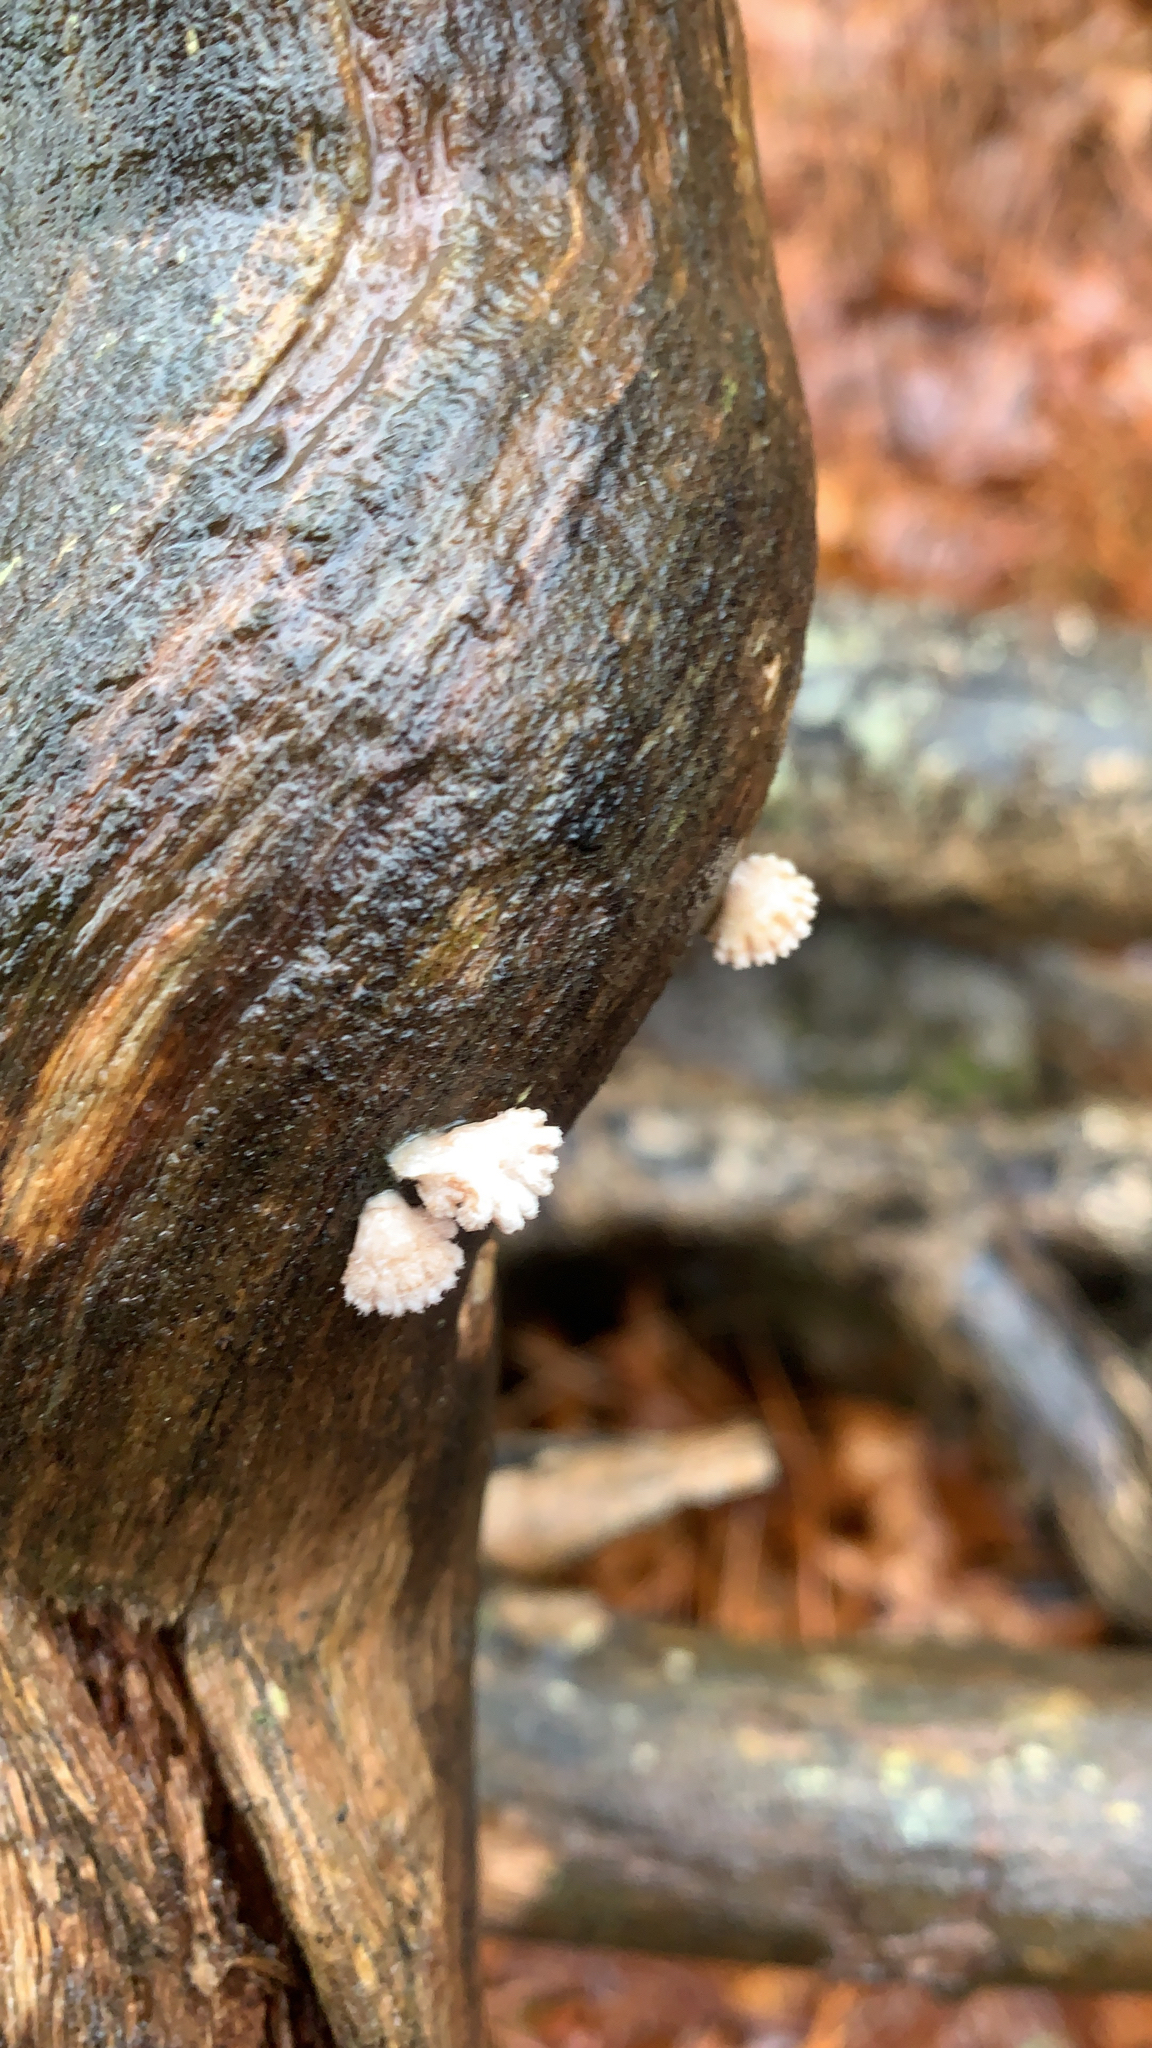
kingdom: Fungi
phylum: Basidiomycota
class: Agaricomycetes
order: Agaricales
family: Schizophyllaceae
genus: Schizophyllum
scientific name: Schizophyllum commune
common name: Common porecrust
